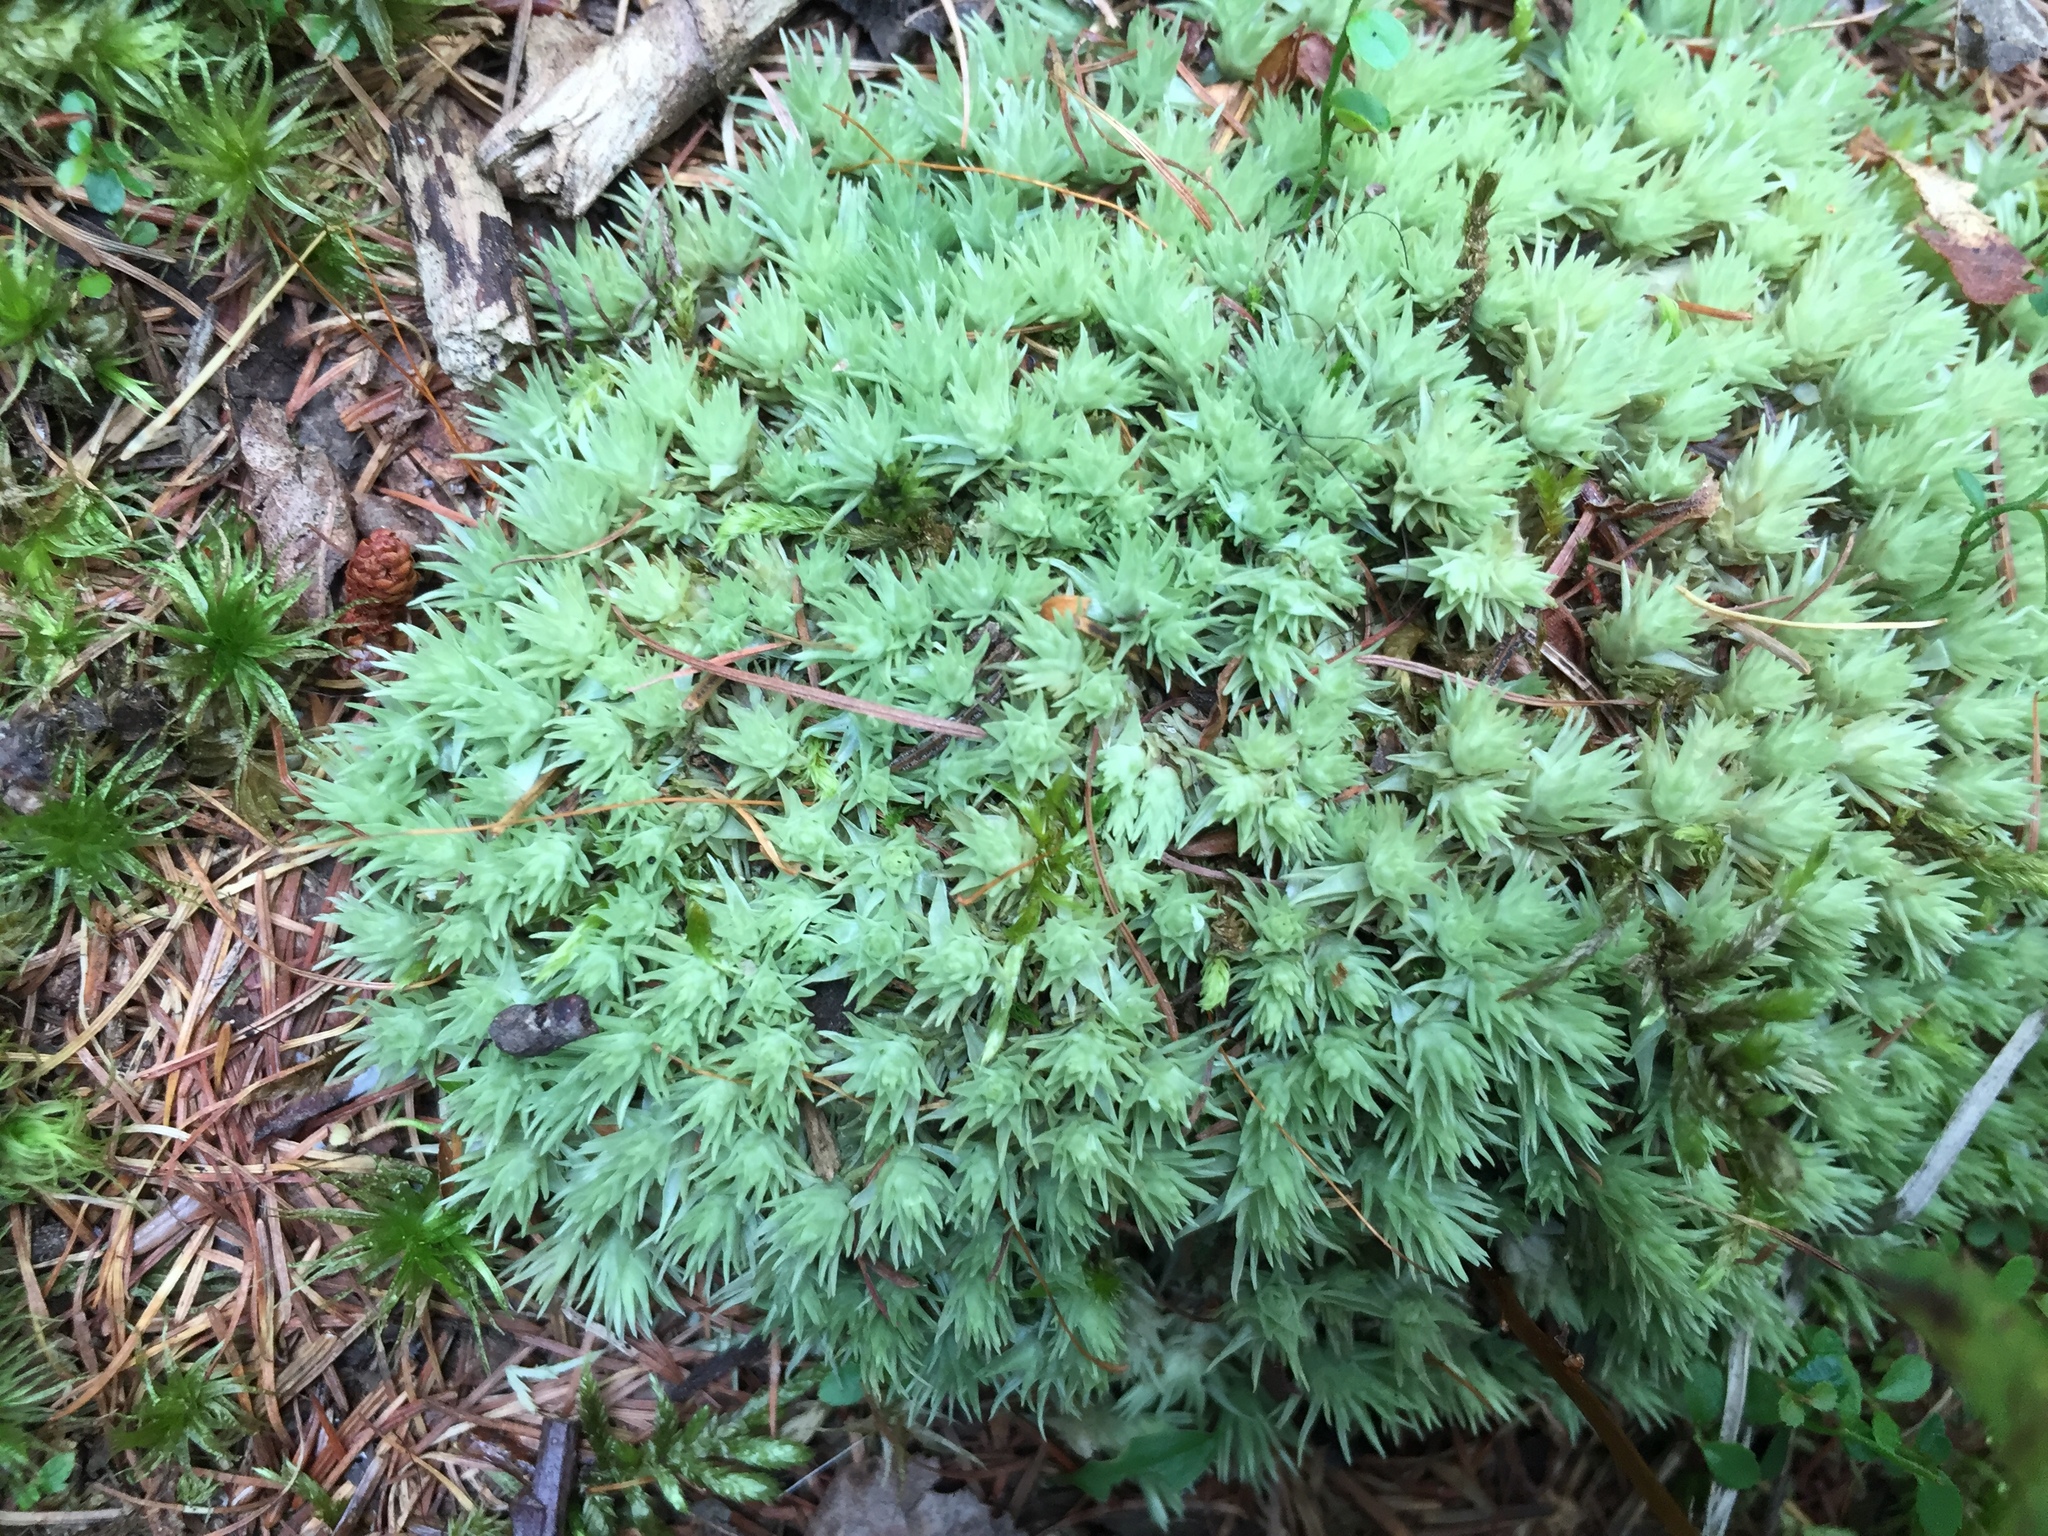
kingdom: Plantae
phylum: Bryophyta
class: Bryopsida
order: Dicranales
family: Leucobryaceae
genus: Leucobryum
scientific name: Leucobryum glaucum
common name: Large white-moss
